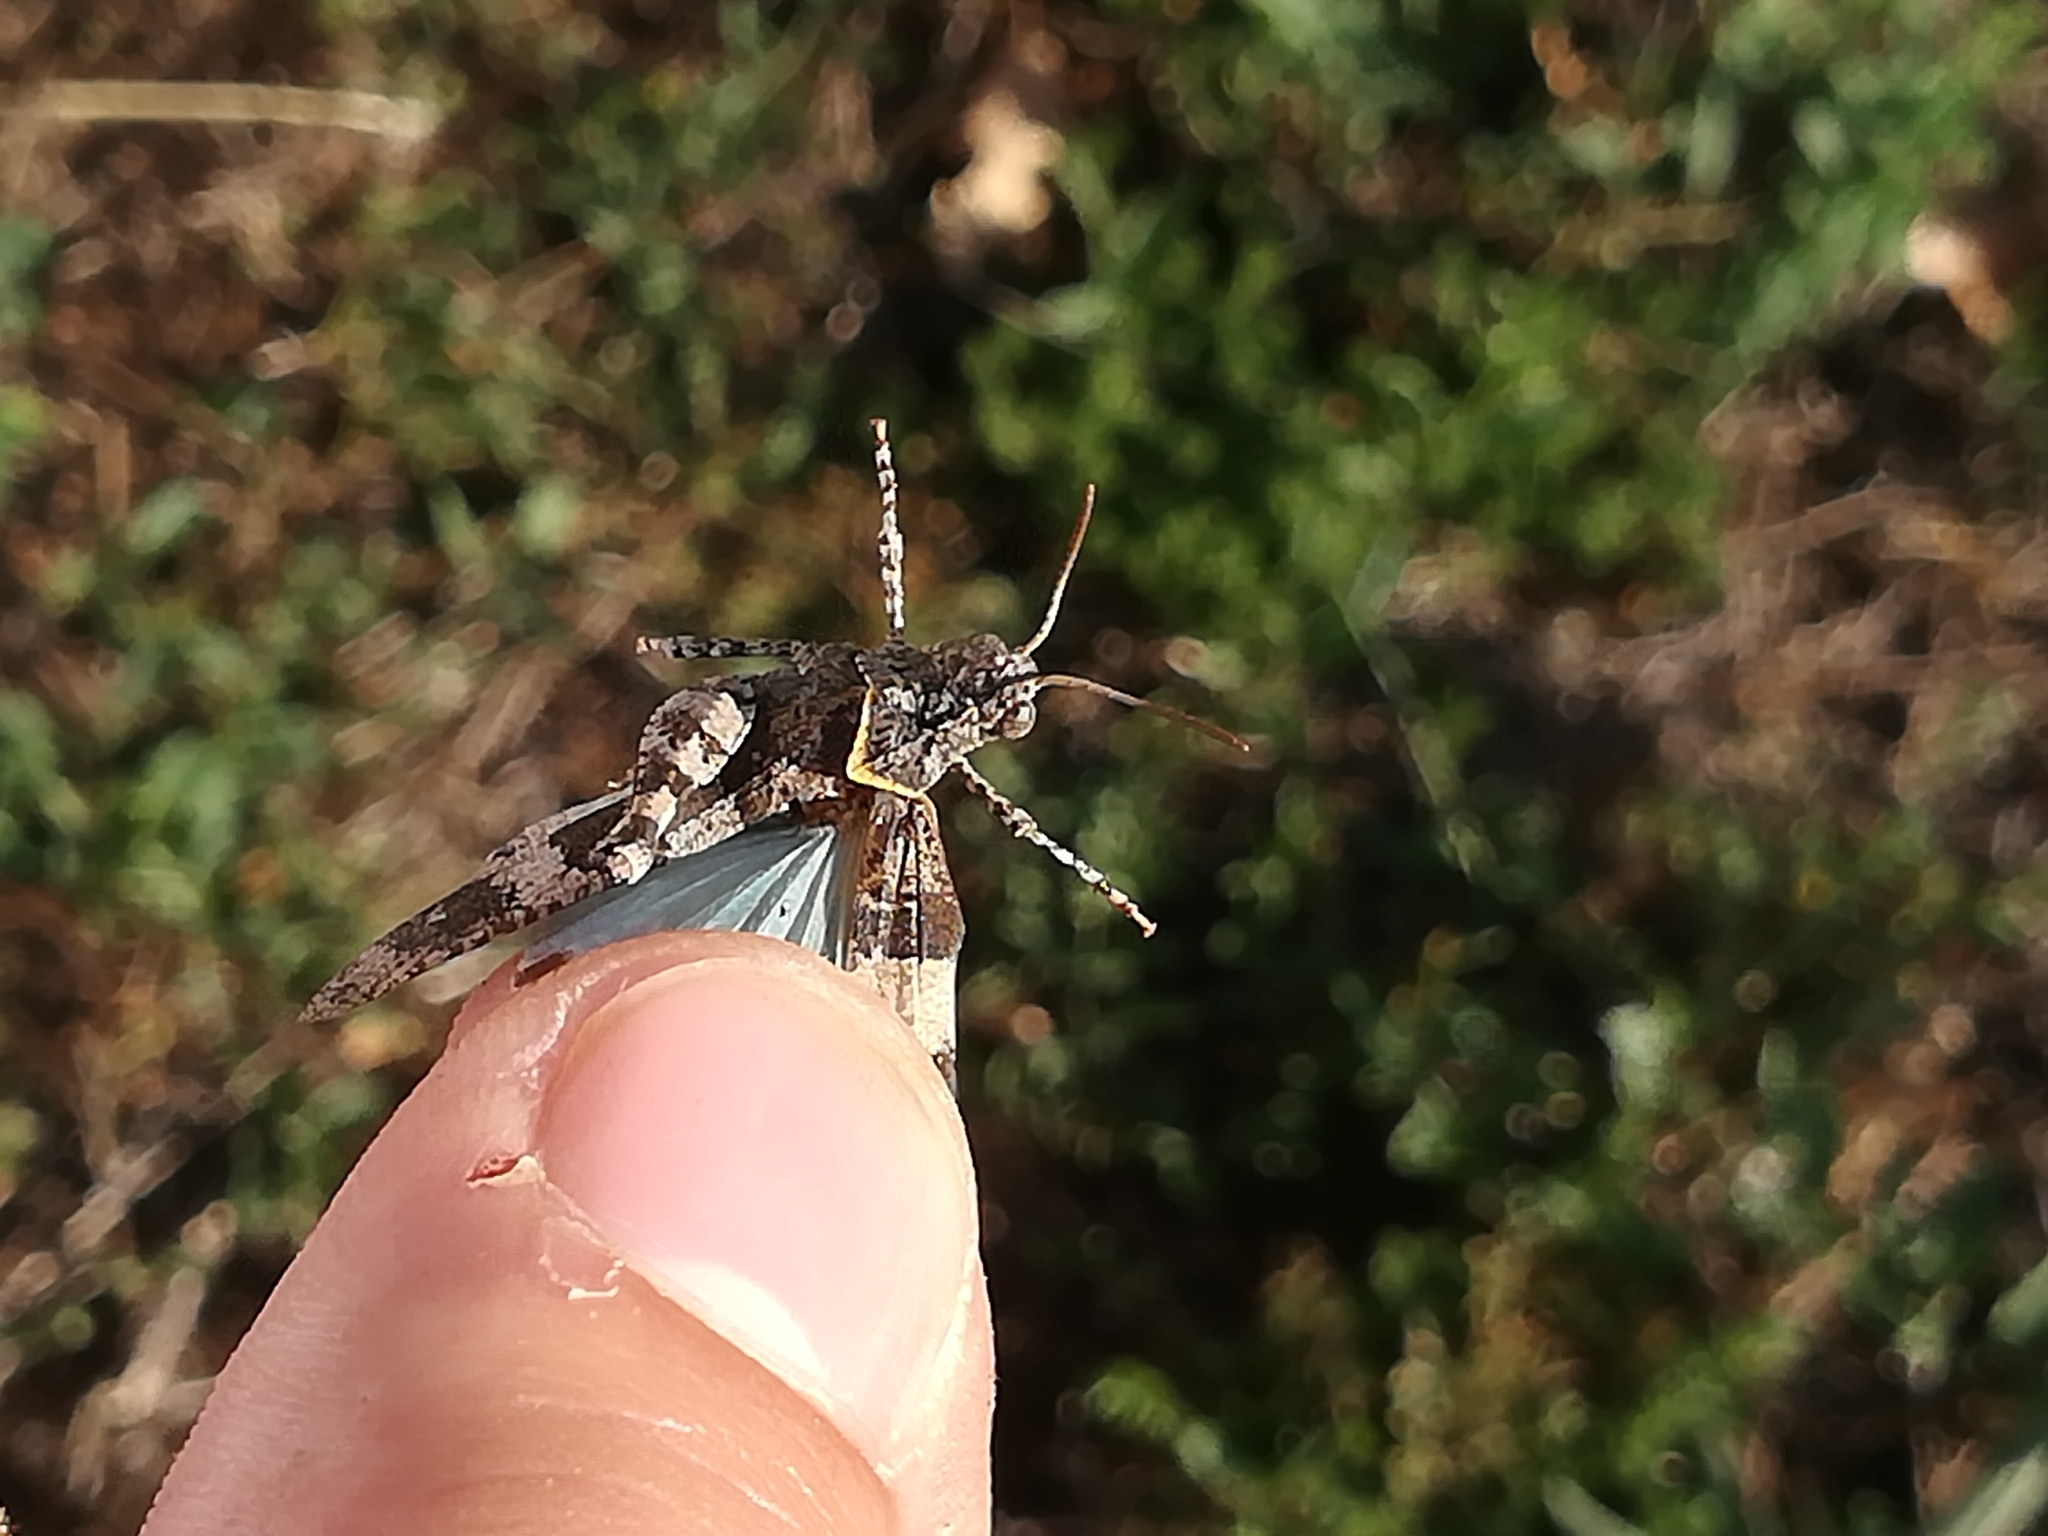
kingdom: Animalia
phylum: Arthropoda
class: Insecta
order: Orthoptera
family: Acrididae
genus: Oedipoda
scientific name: Oedipoda caerulescens
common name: Blue-winged grasshopper
